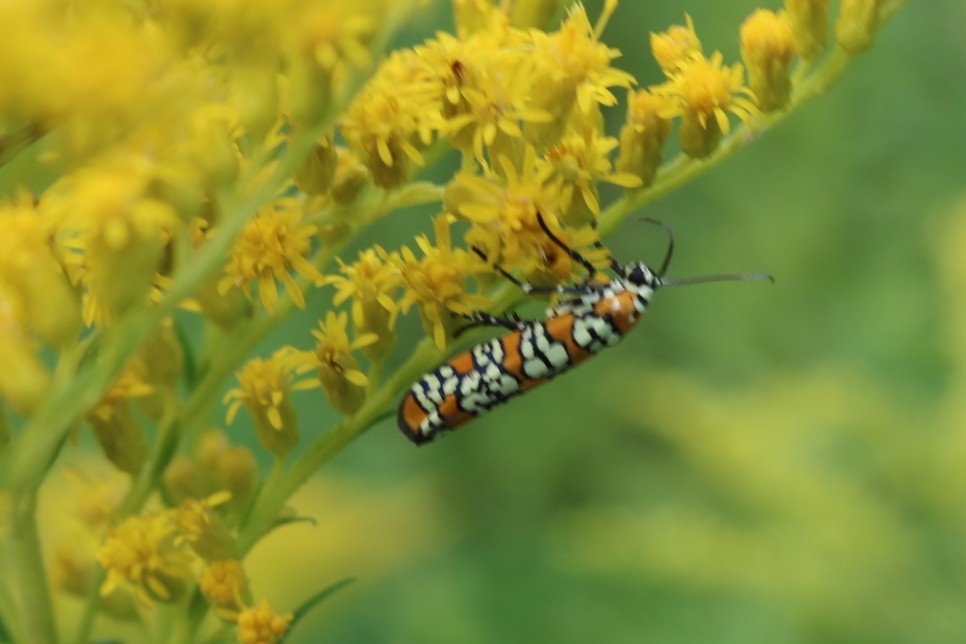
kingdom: Animalia
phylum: Arthropoda
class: Insecta
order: Lepidoptera
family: Attevidae
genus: Atteva
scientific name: Atteva punctella
